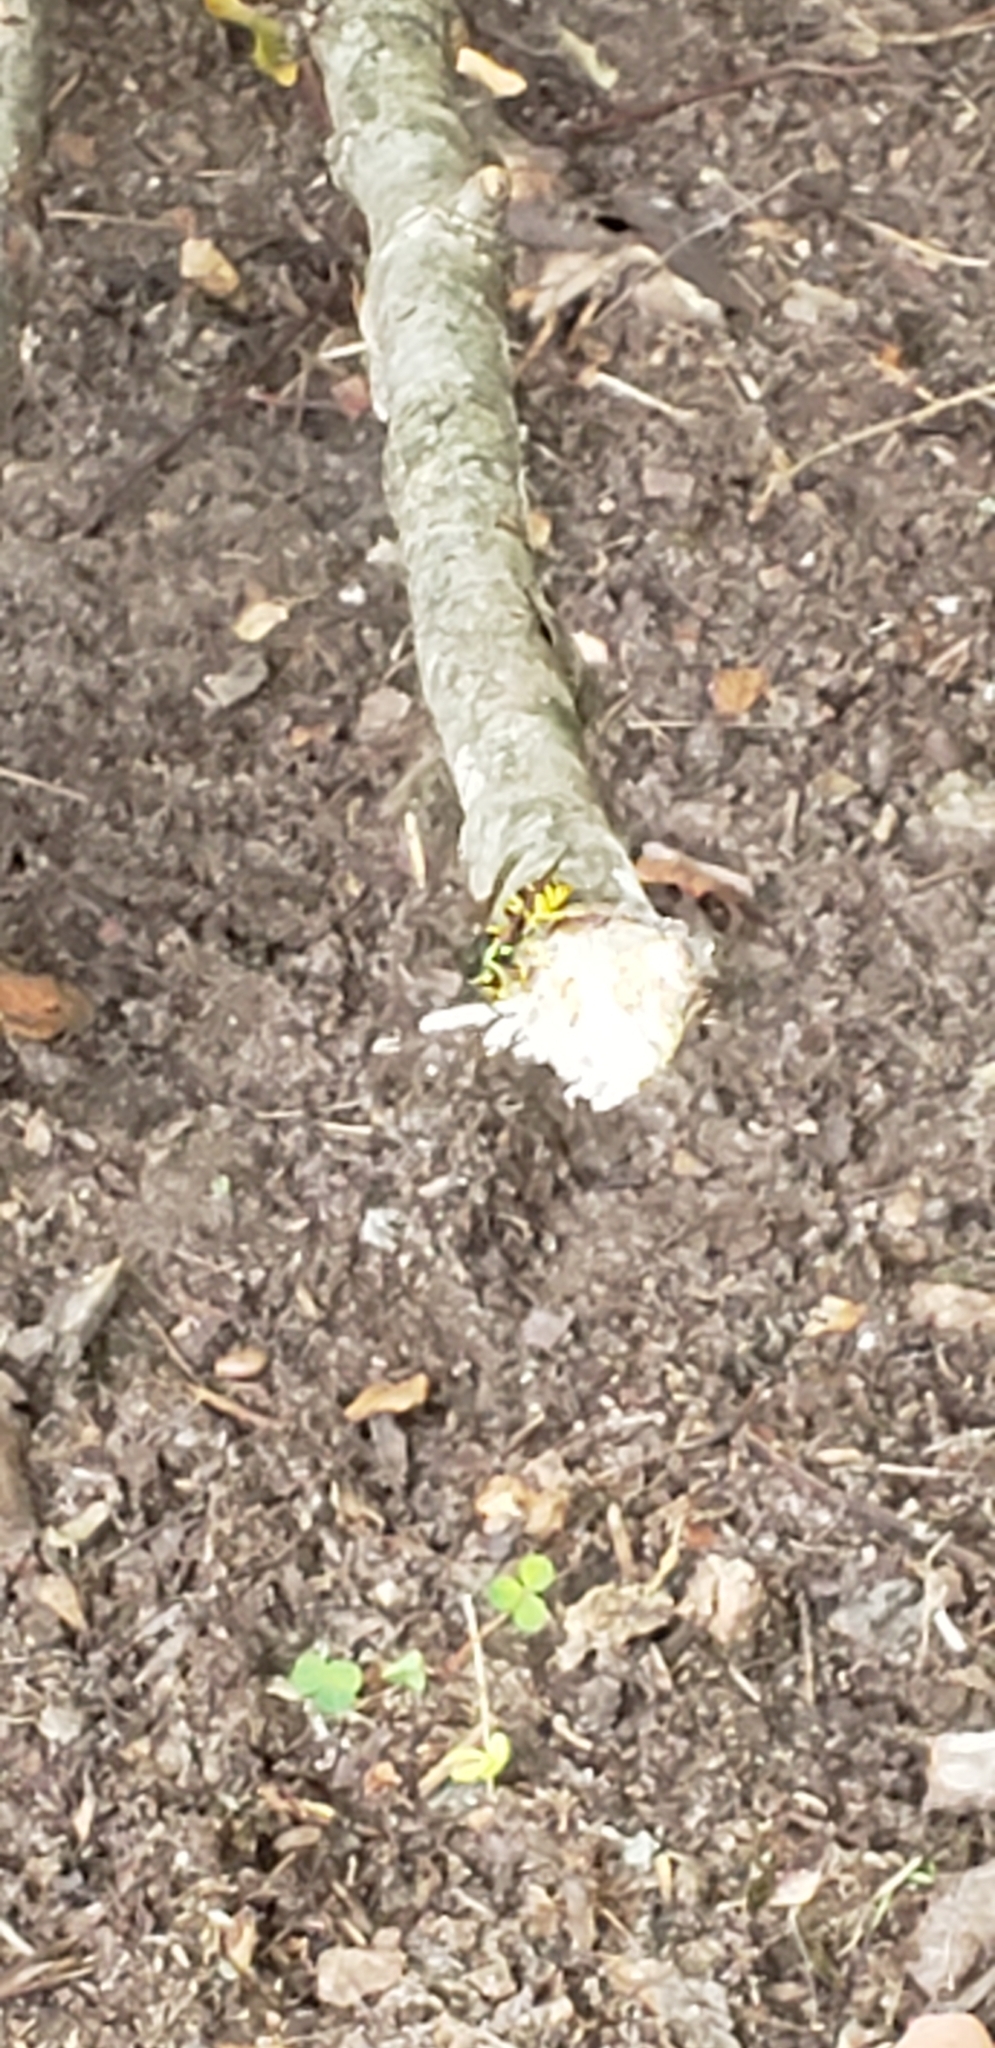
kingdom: Animalia
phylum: Arthropoda
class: Insecta
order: Hymenoptera
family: Vespidae
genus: Vespula
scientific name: Vespula maculifrons
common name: Eastern yellowjacket
